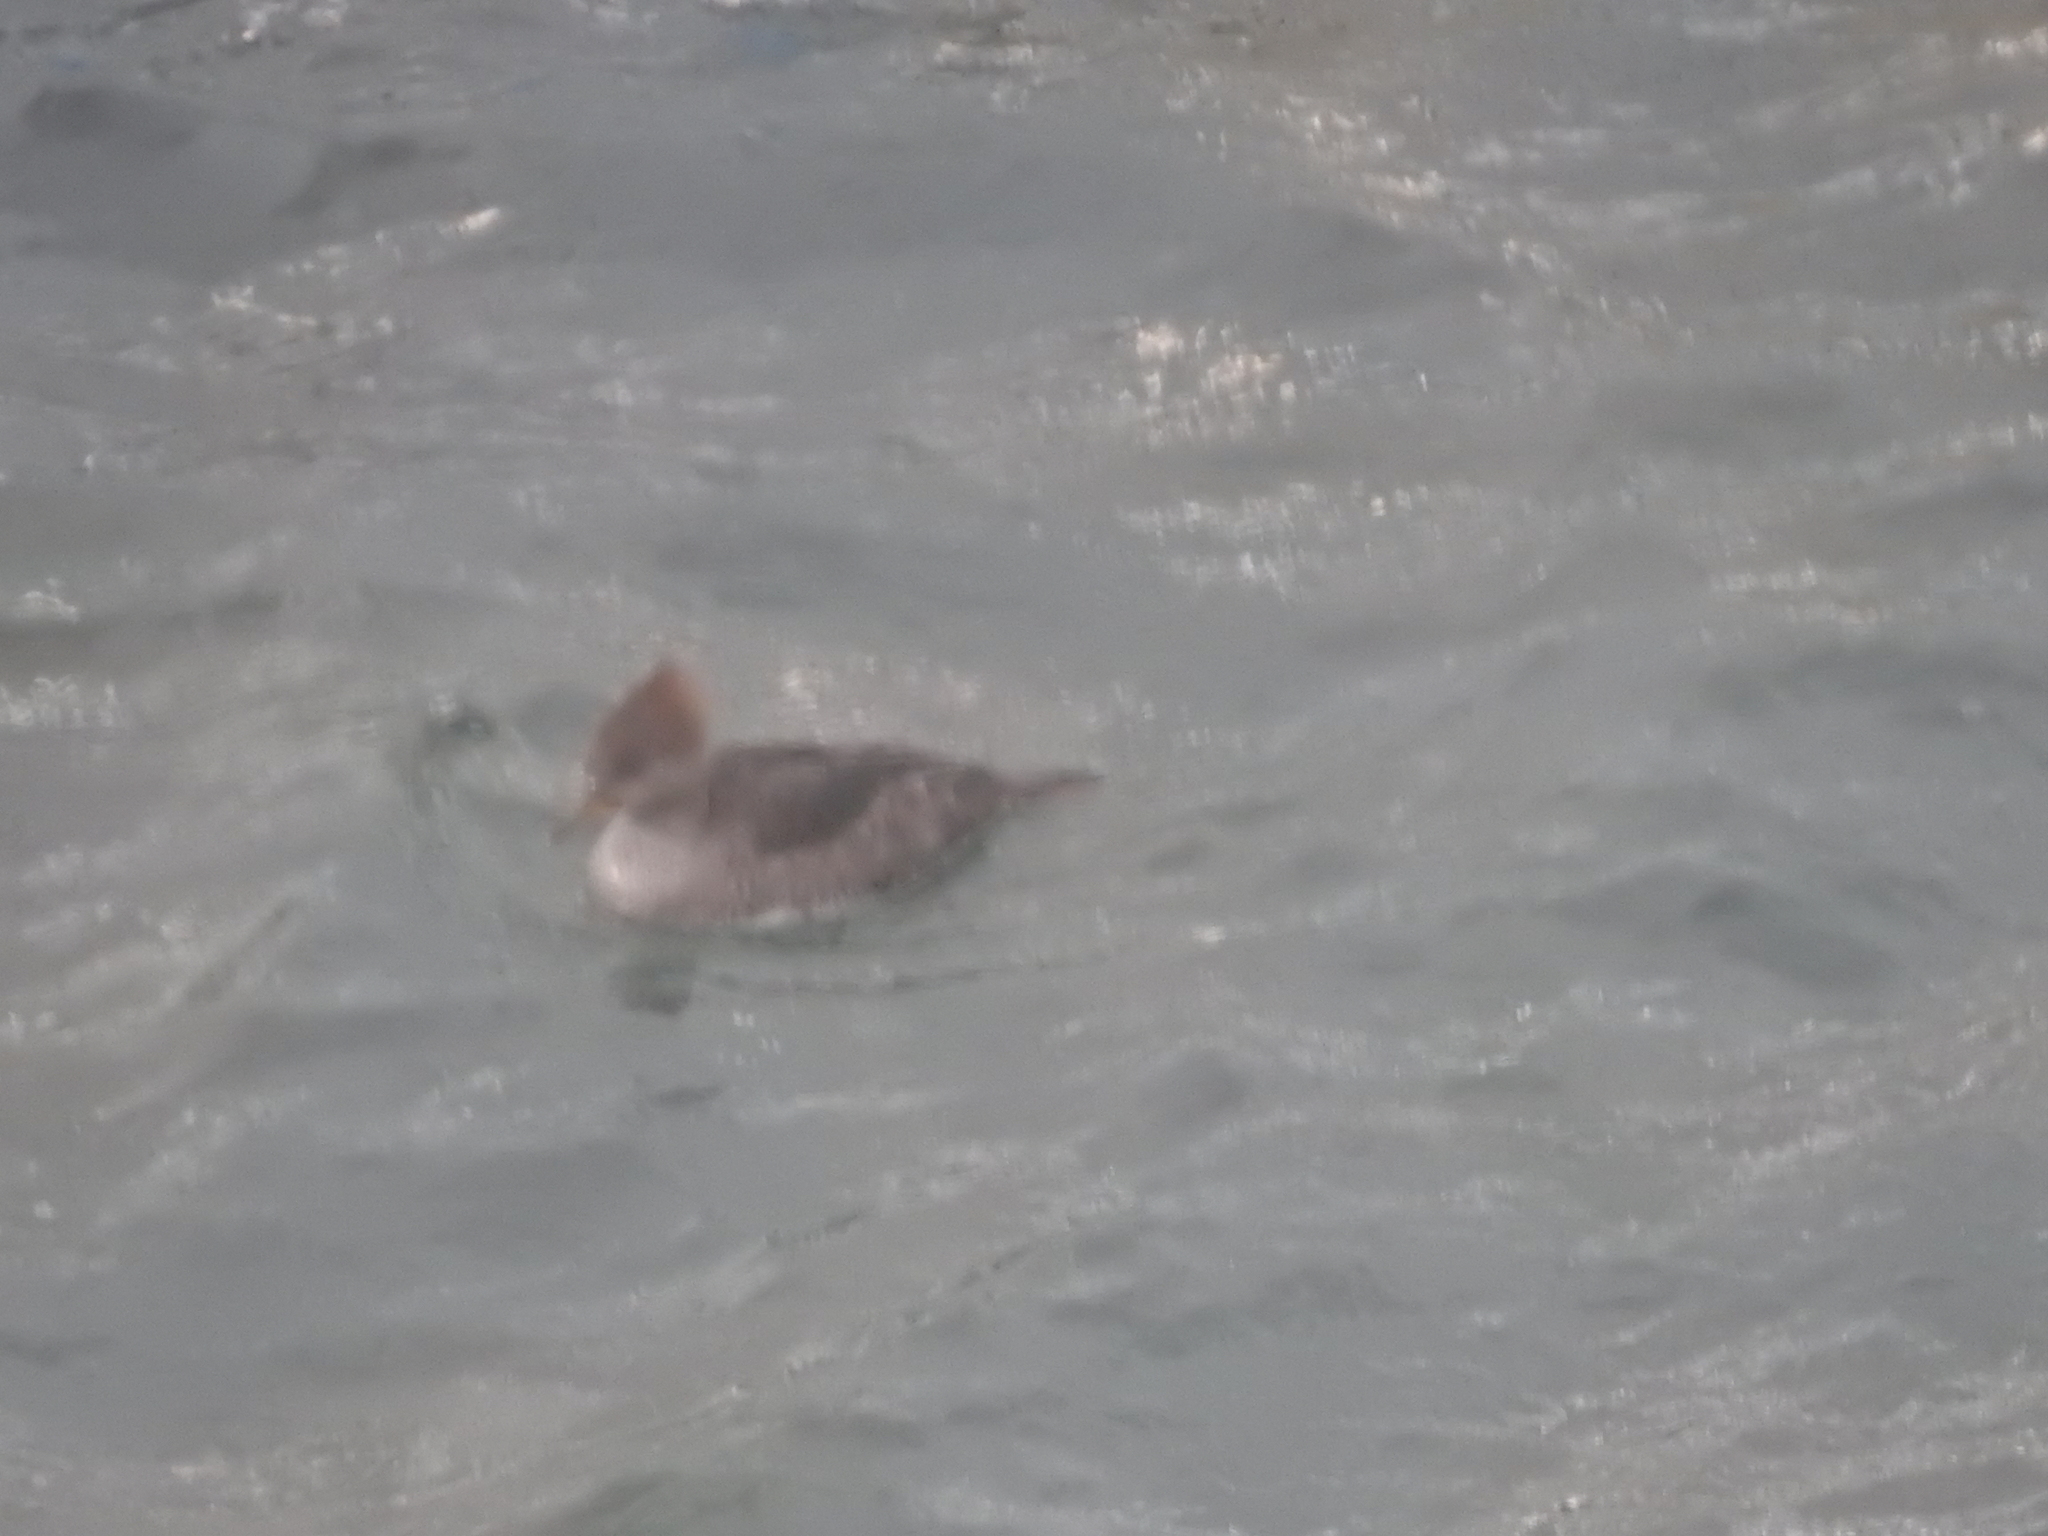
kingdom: Animalia
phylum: Chordata
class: Aves
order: Anseriformes
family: Anatidae
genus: Mergus
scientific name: Mergus serrator
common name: Red-breasted merganser
